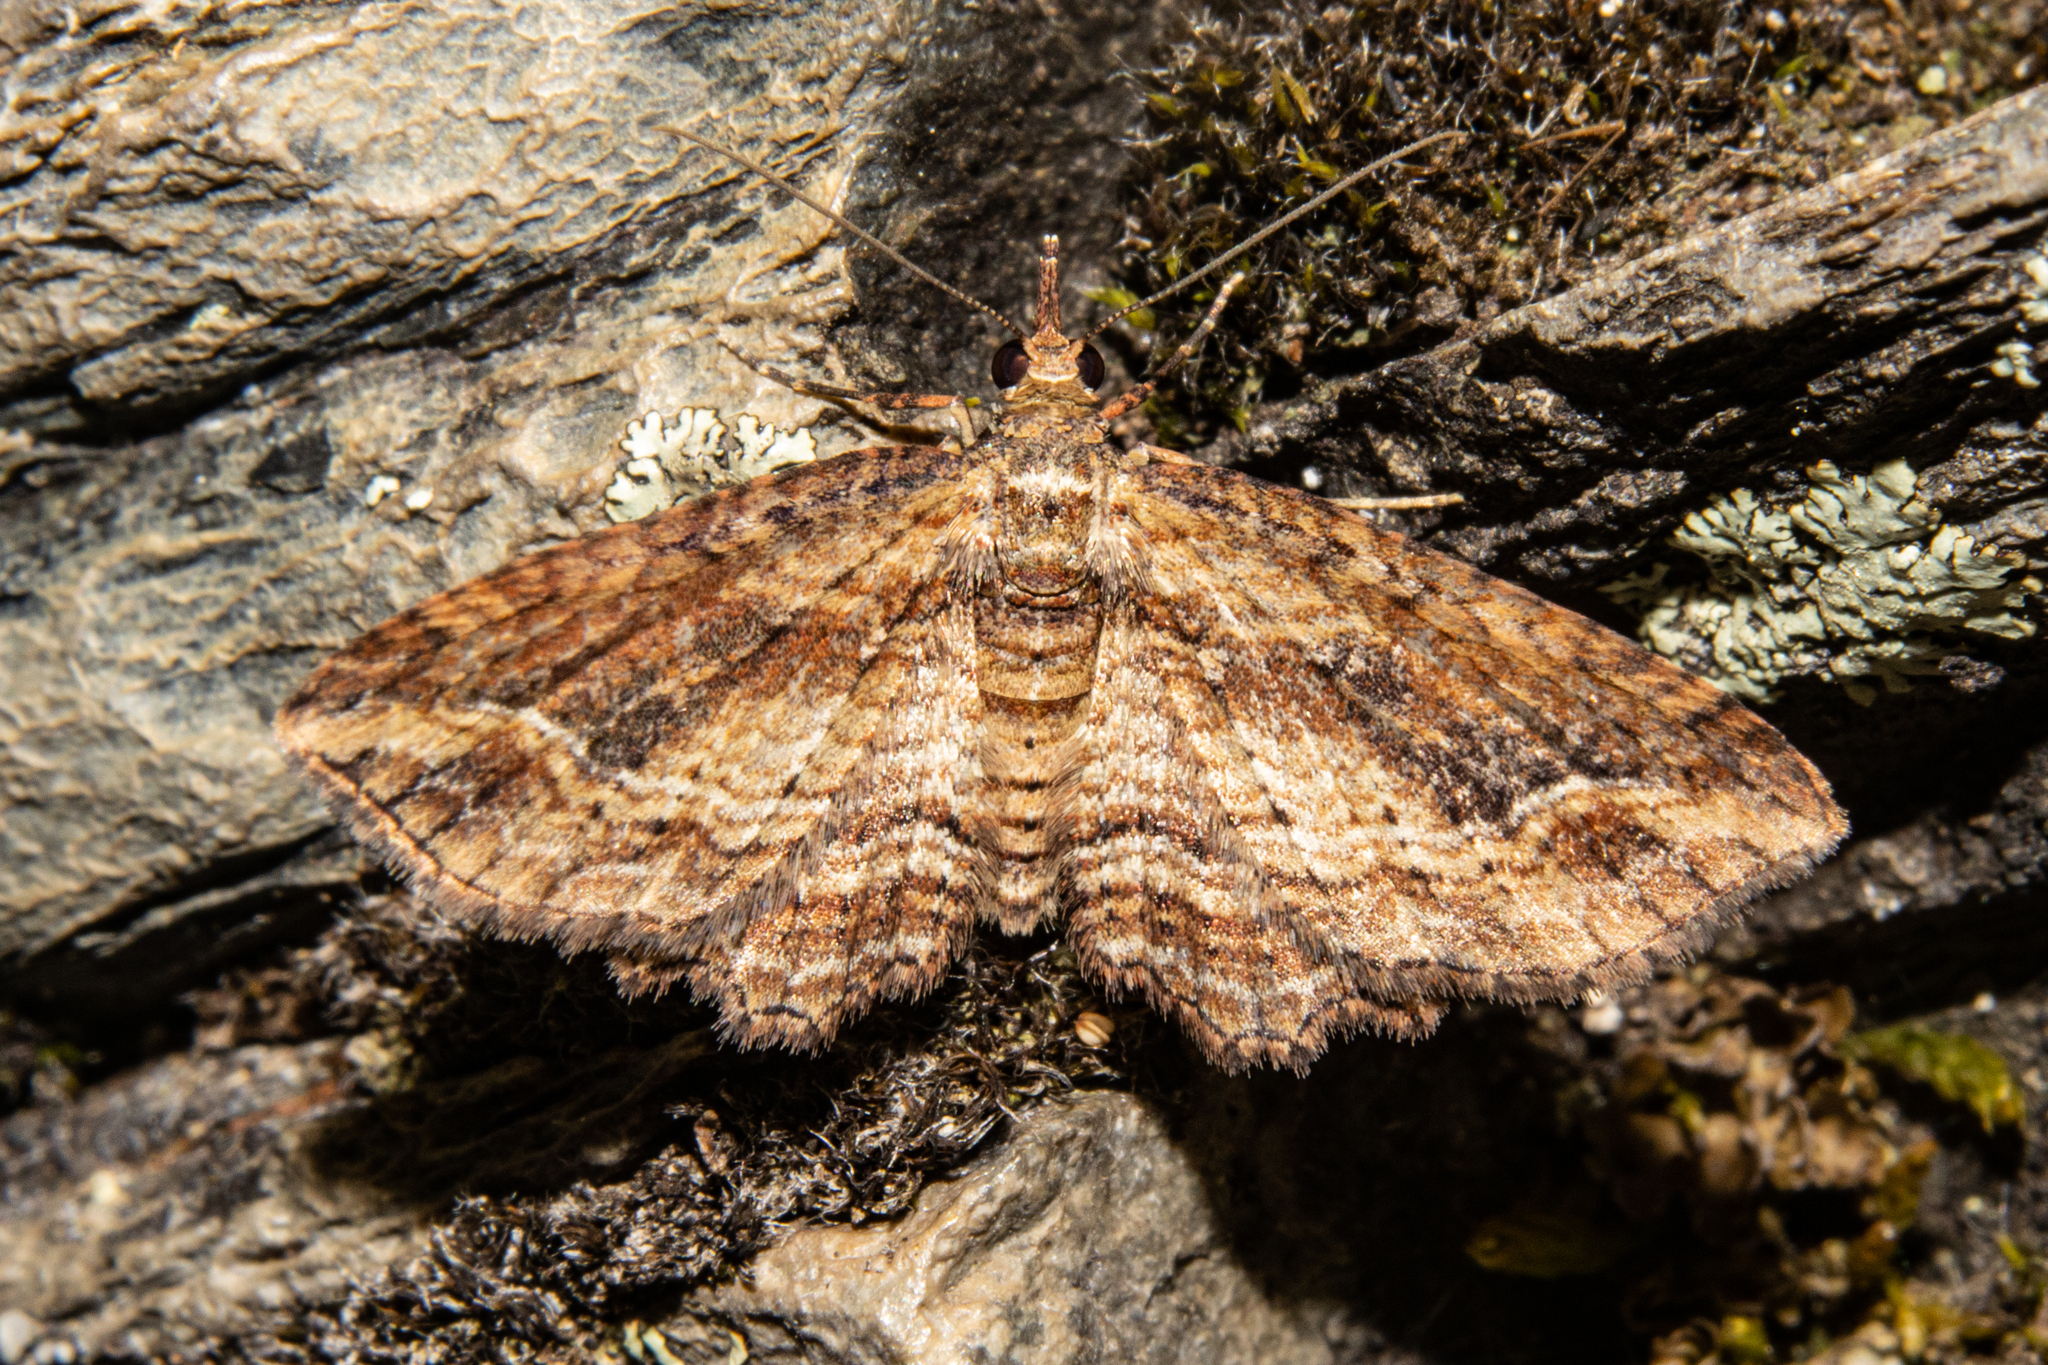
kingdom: Animalia
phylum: Arthropoda
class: Insecta
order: Lepidoptera
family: Geometridae
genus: Chloroclystis
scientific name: Chloroclystis filata
